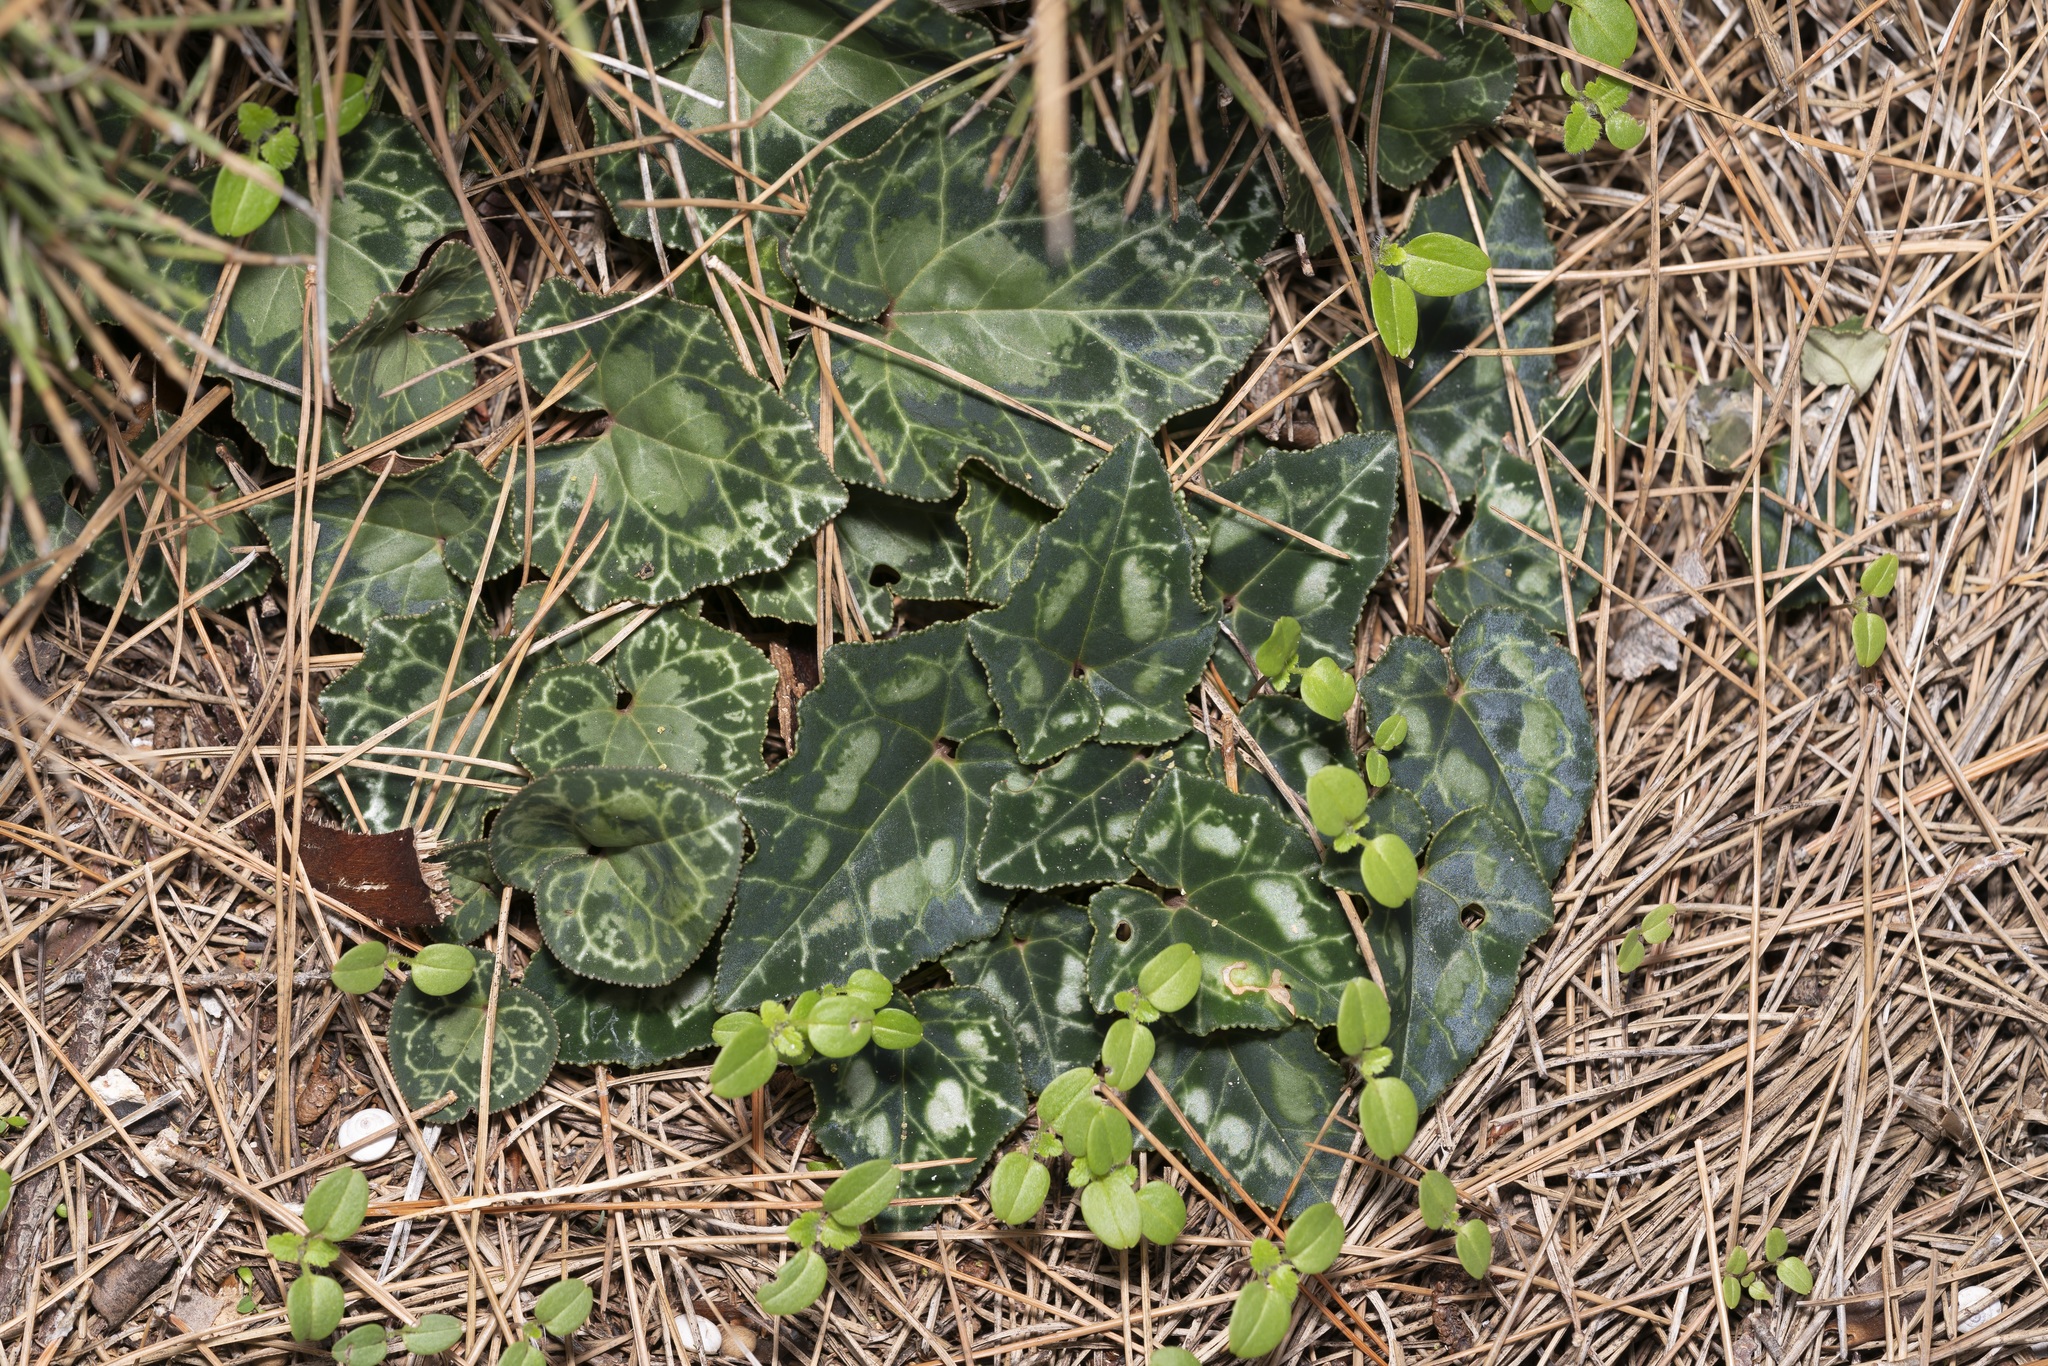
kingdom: Plantae
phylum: Tracheophyta
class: Magnoliopsida
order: Ericales
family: Primulaceae
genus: Cyclamen
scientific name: Cyclamen graecum
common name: Greek cyclamen
